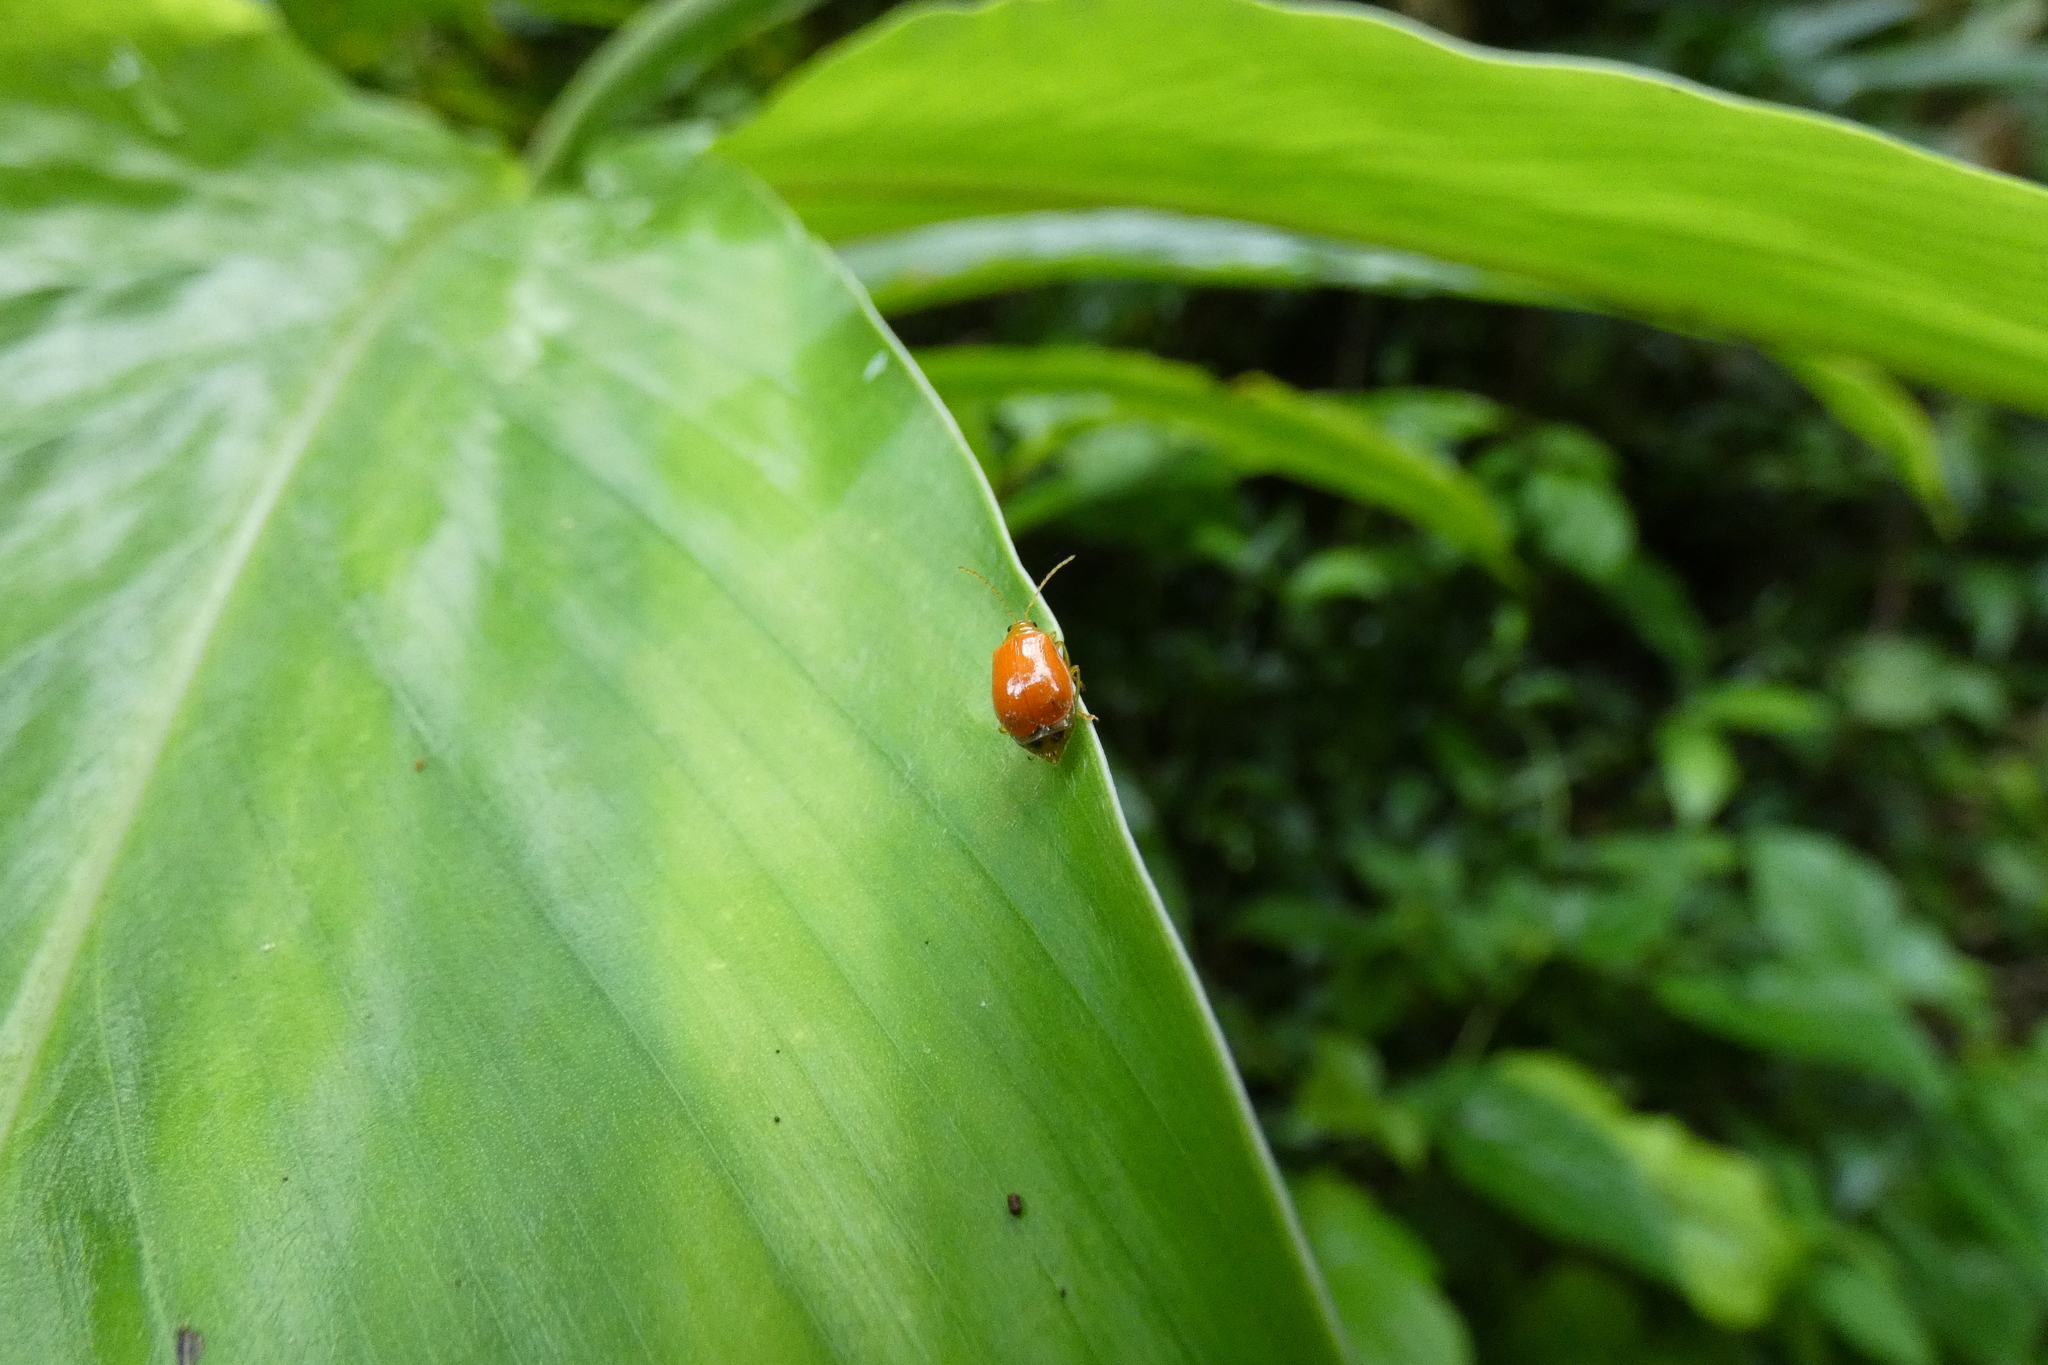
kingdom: Animalia
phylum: Arthropoda
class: Insecta
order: Coleoptera
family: Chrysomelidae
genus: Aulacophora
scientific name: Aulacophora indica
